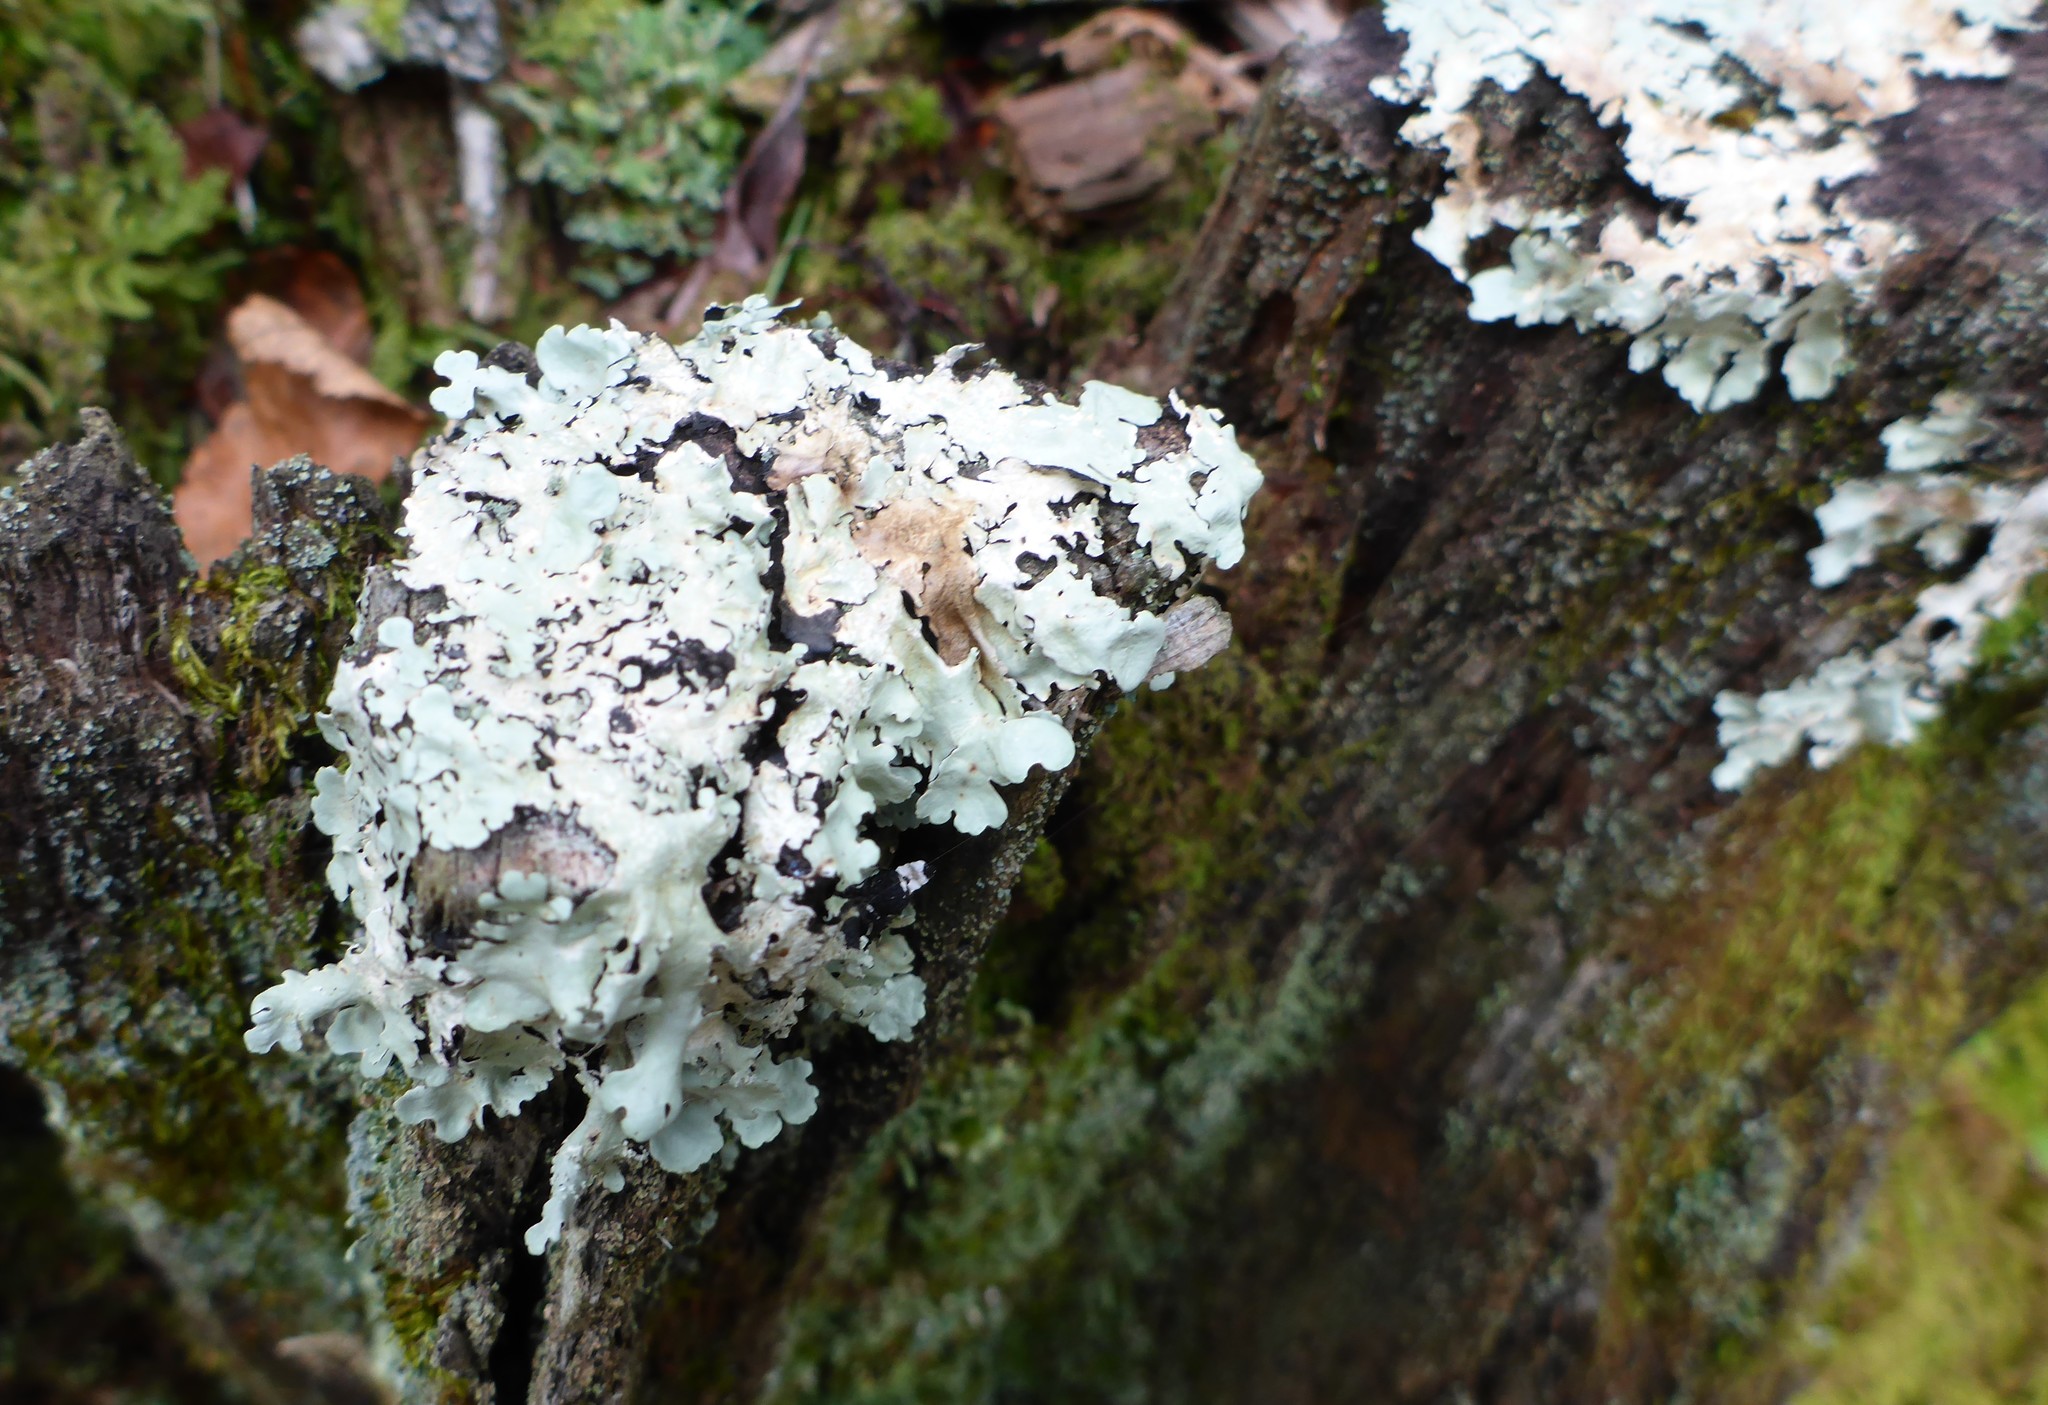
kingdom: Fungi
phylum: Ascomycota
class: Lecanoromycetes
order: Lecanorales
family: Parmeliaceae
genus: Parmotrema
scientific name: Parmotrema tinctorum
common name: Old gray ruffles
